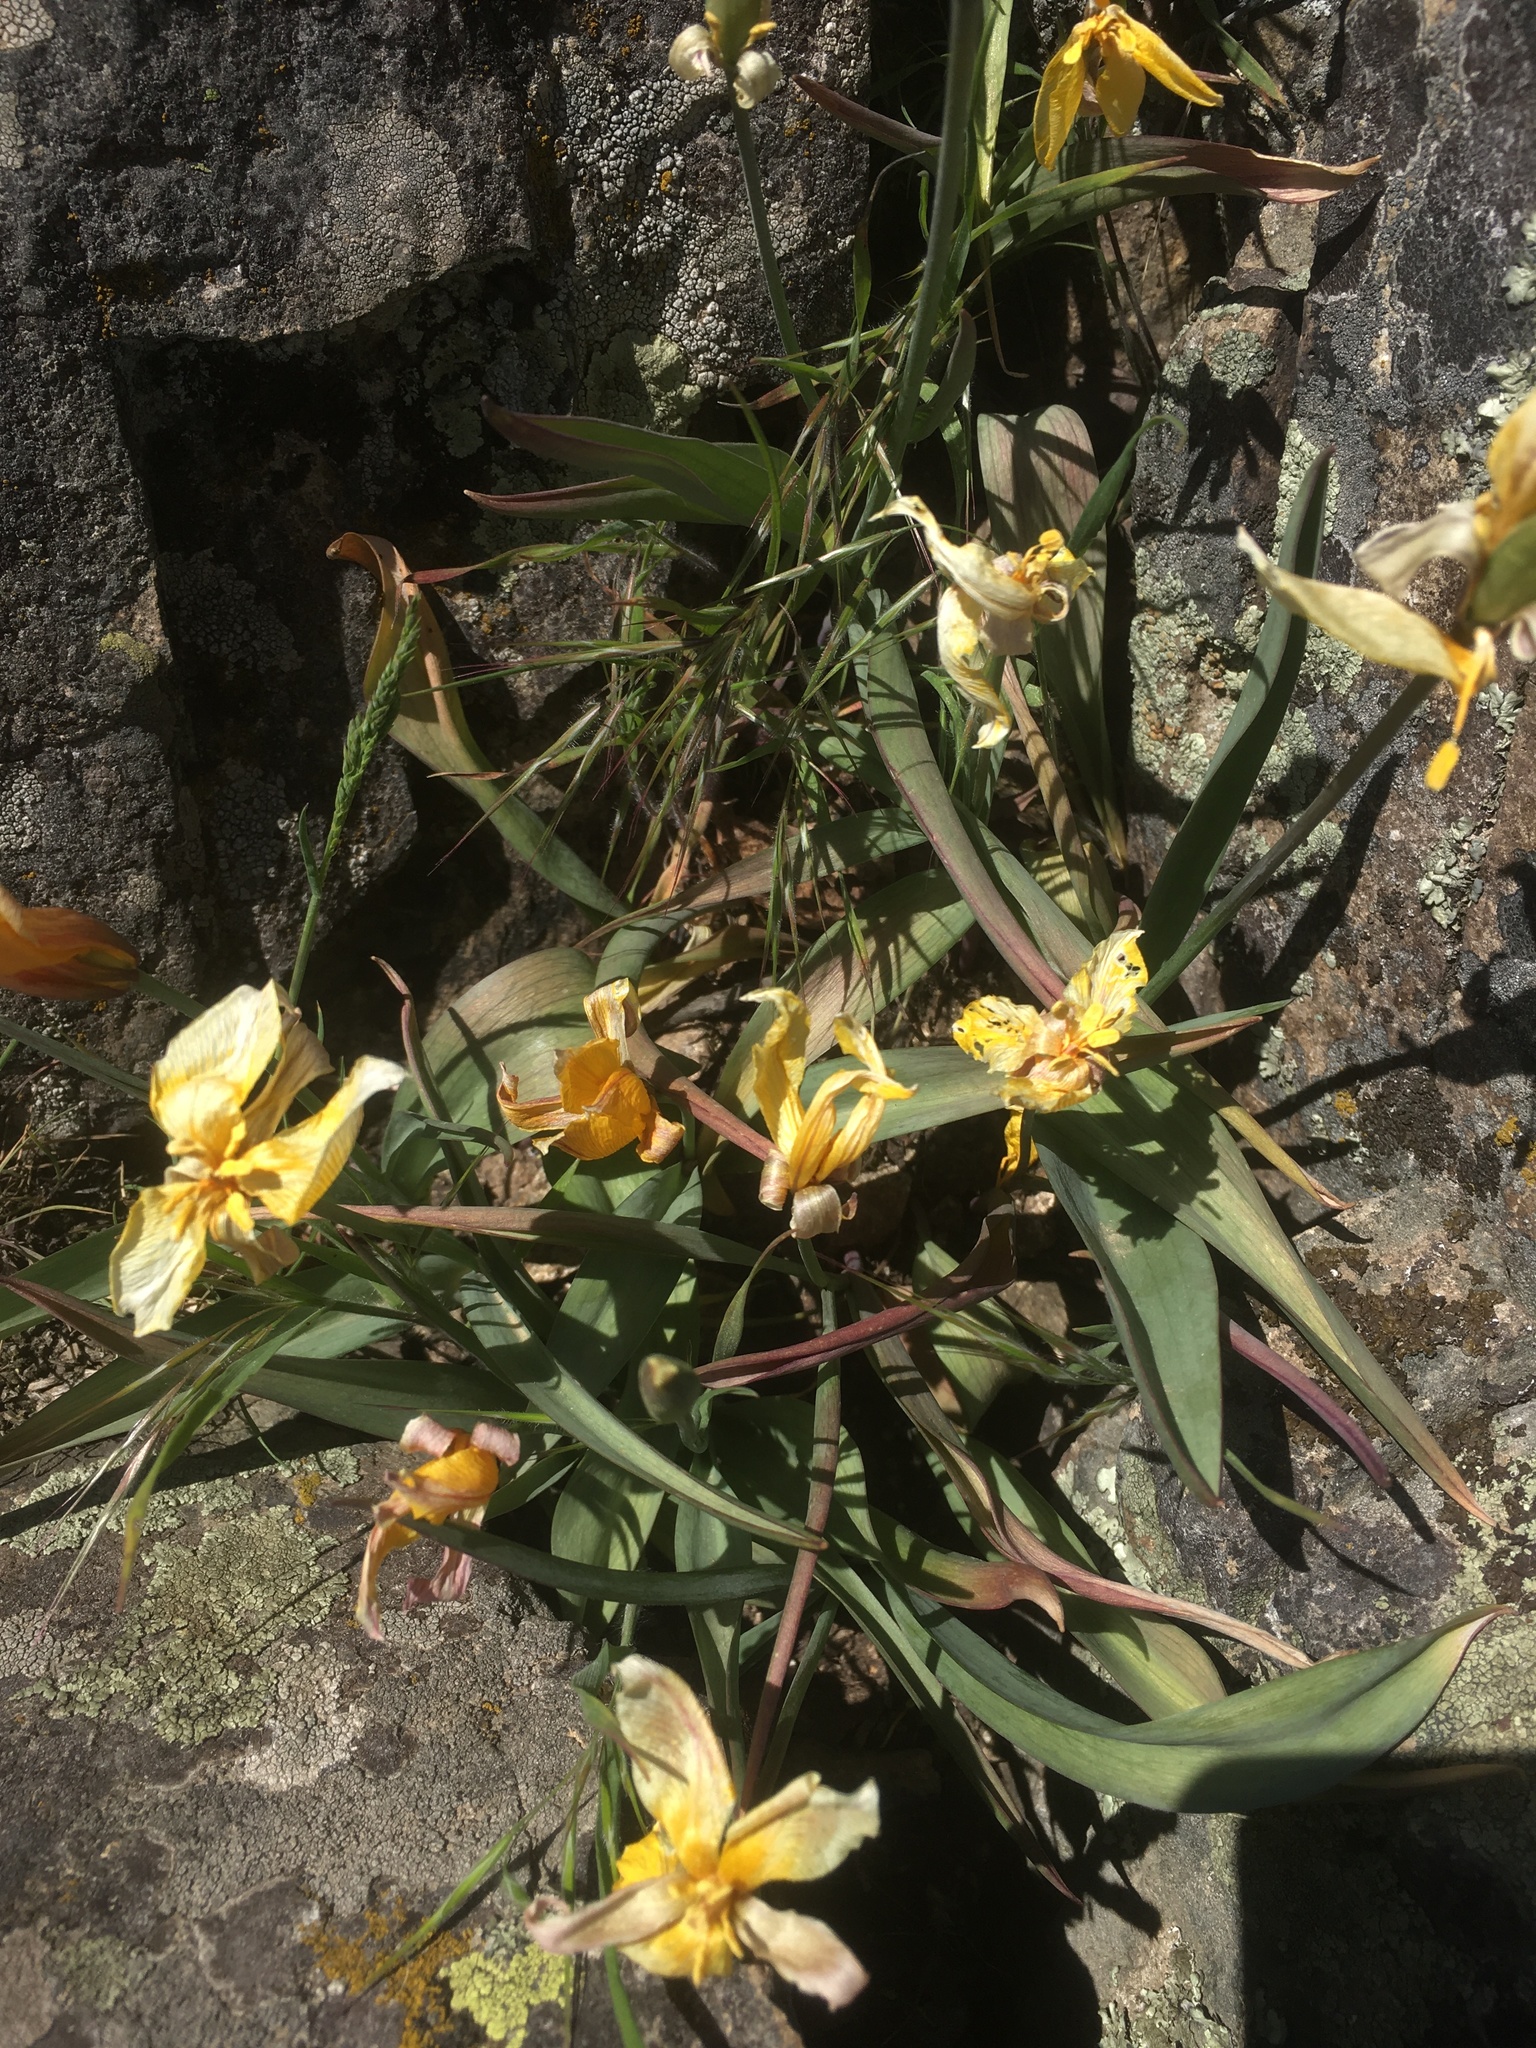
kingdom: Plantae
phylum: Tracheophyta
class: Liliopsida
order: Liliales
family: Liliaceae
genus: Tulipa
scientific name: Tulipa sylvestris
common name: Wild tulip
